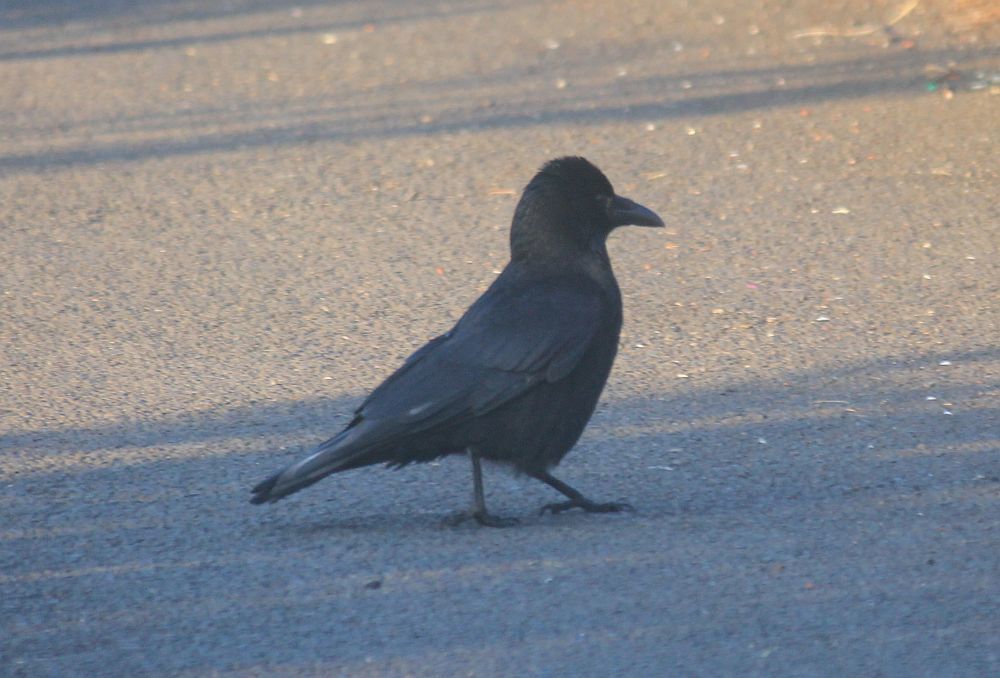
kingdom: Animalia
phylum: Chordata
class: Aves
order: Passeriformes
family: Corvidae
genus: Corvus
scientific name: Corvus corone
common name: Carrion crow
